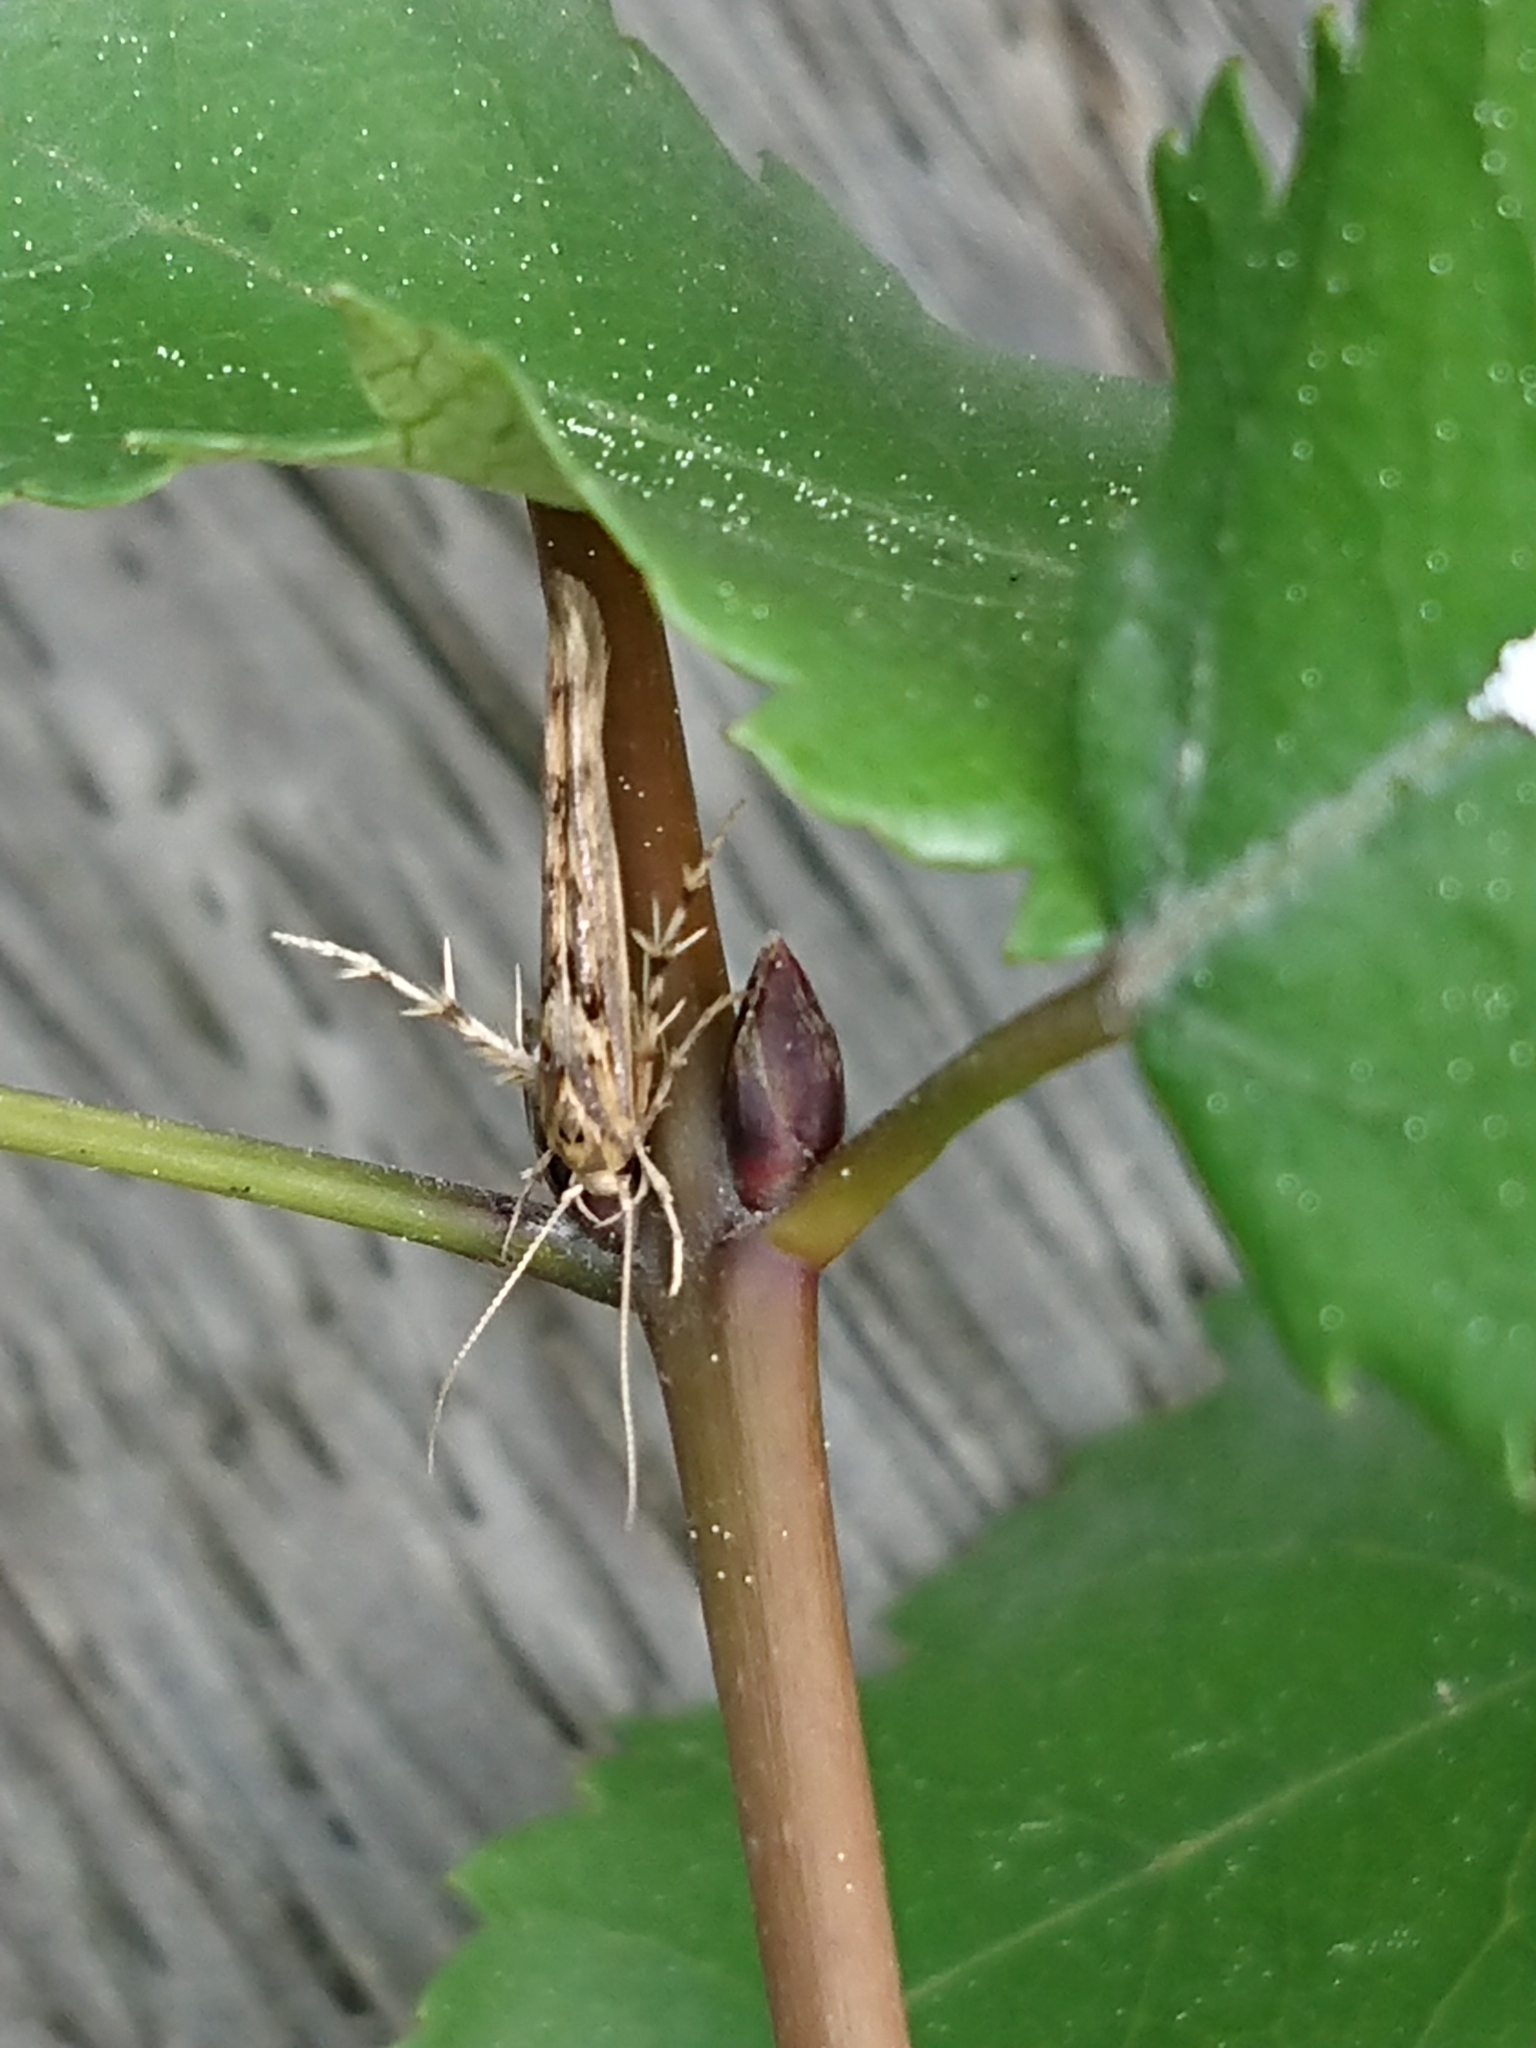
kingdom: Animalia
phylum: Arthropoda
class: Insecta
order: Lepidoptera
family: Stathmopodidae
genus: Stathmopoda
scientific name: Stathmopoda plumbiflua
